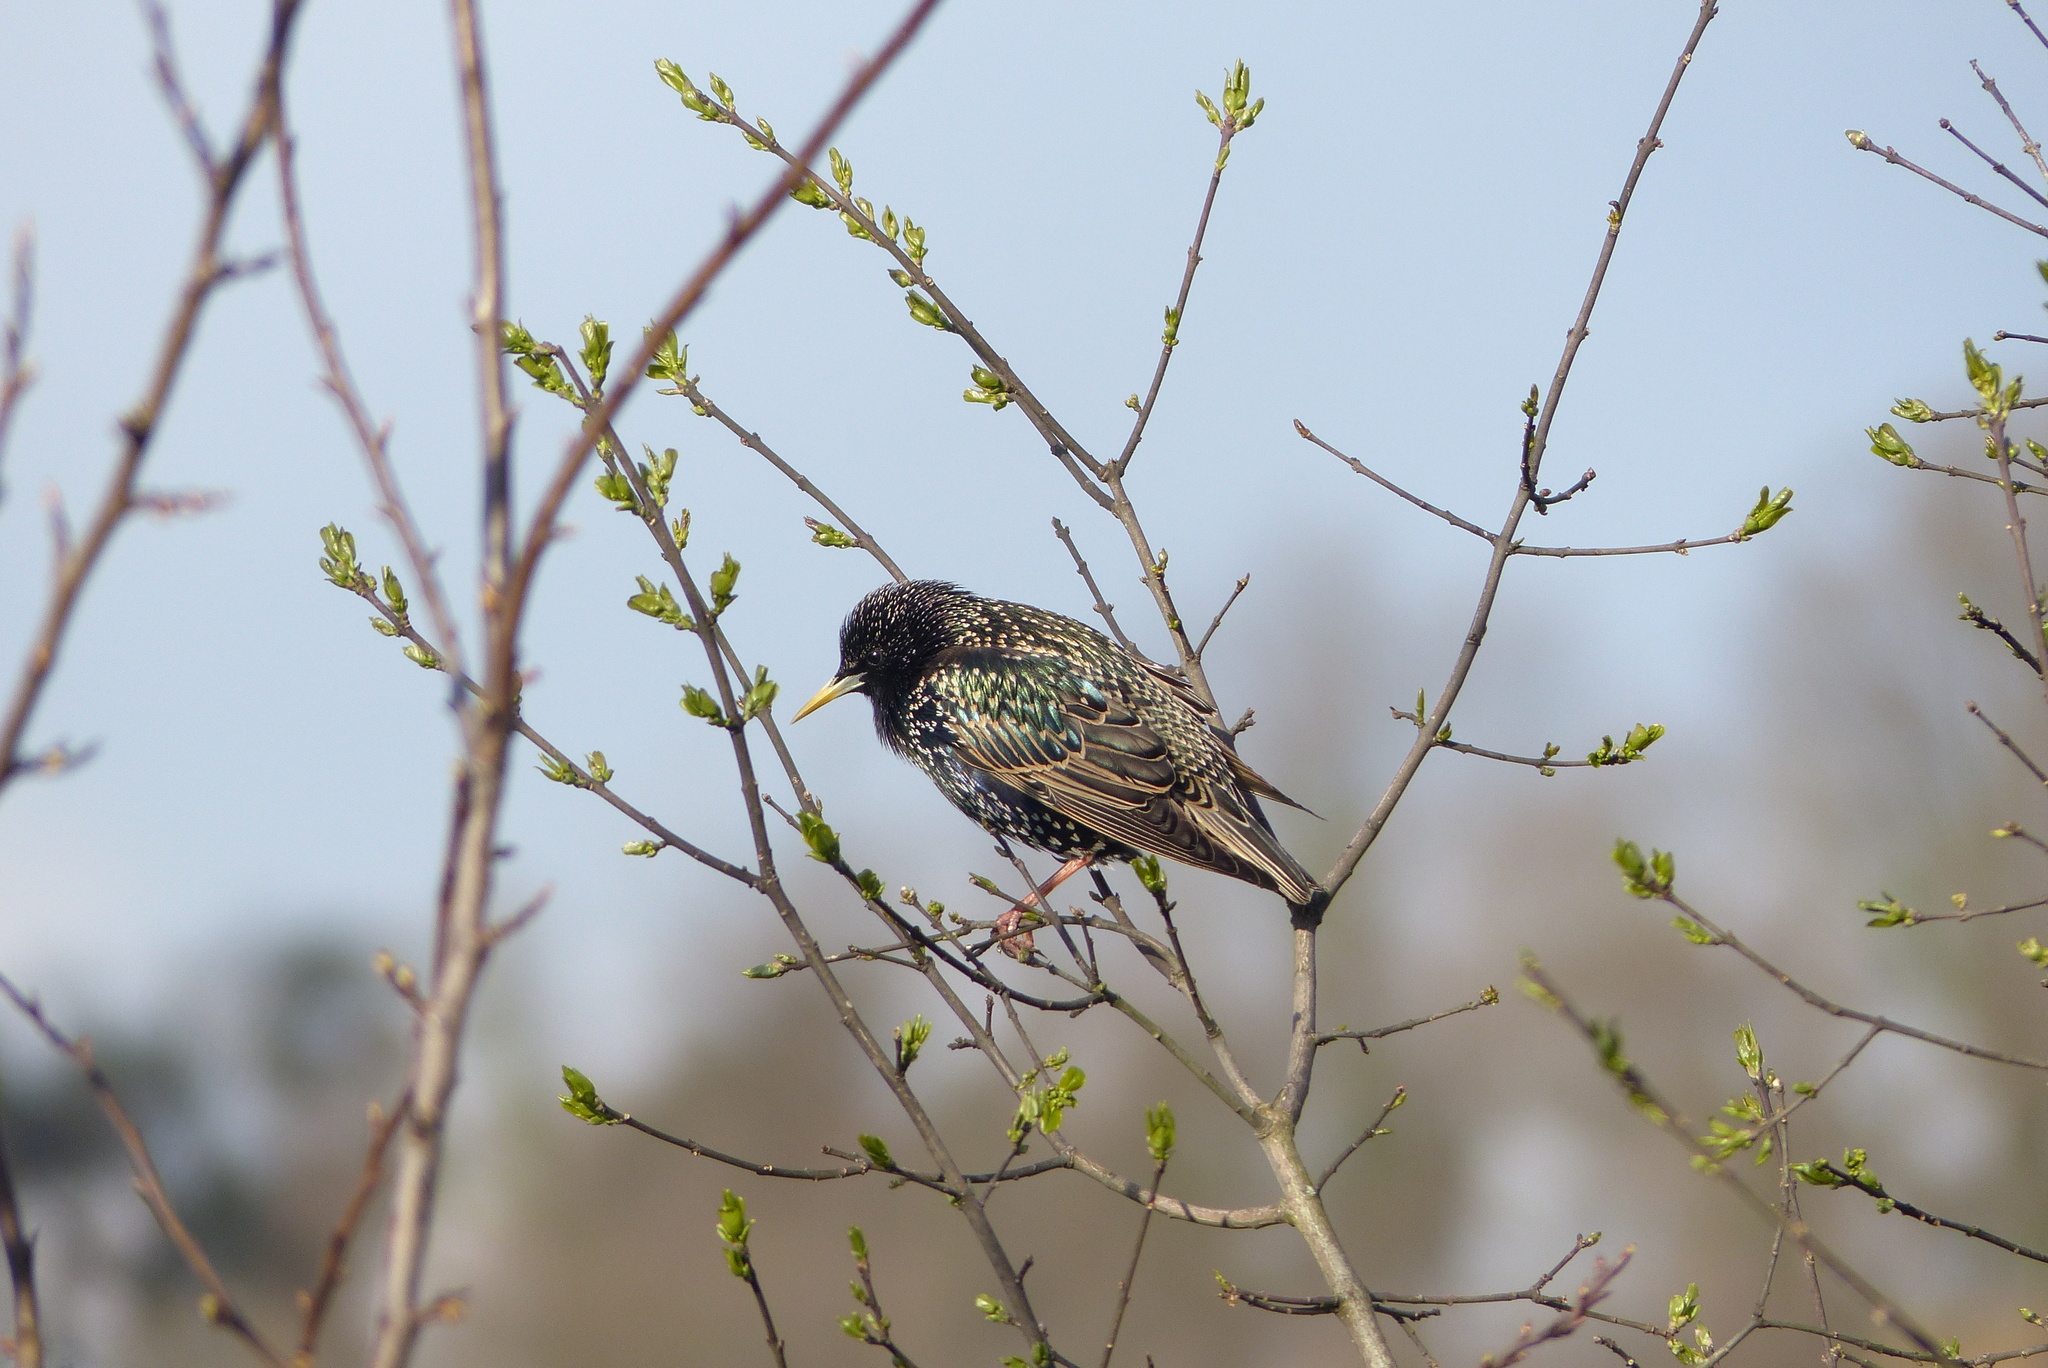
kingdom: Animalia
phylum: Chordata
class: Aves
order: Passeriformes
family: Sturnidae
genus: Sturnus
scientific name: Sturnus vulgaris
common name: Common starling
